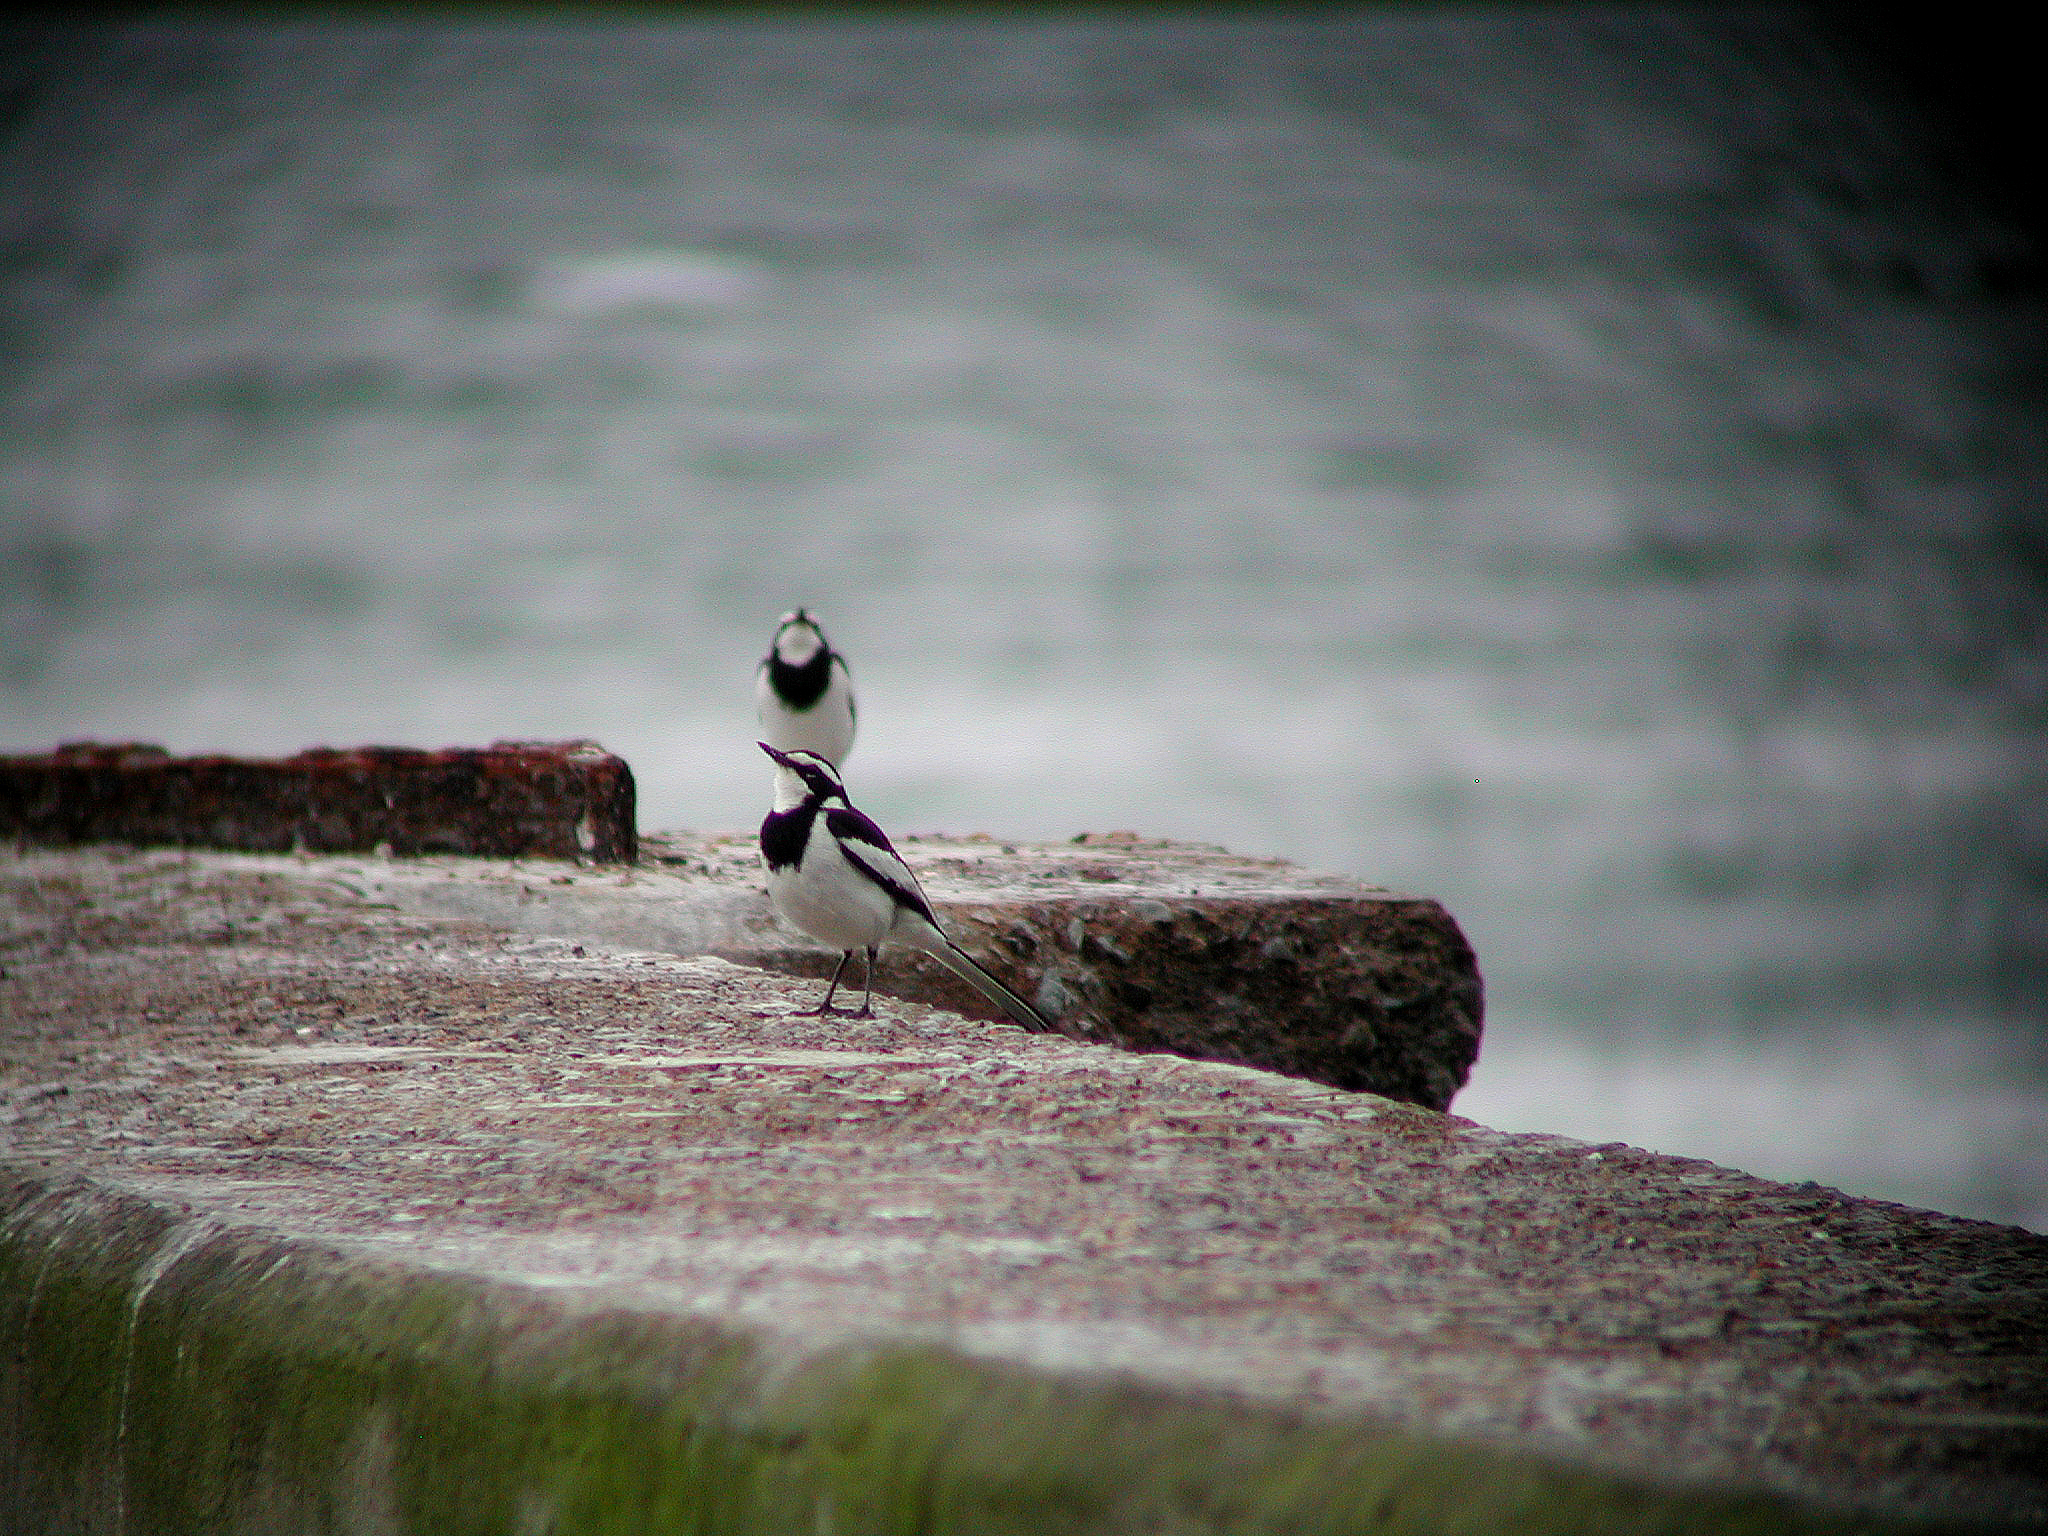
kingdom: Animalia
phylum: Chordata
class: Aves
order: Passeriformes
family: Motacillidae
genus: Motacilla
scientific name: Motacilla aguimp
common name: African pied wagtail
